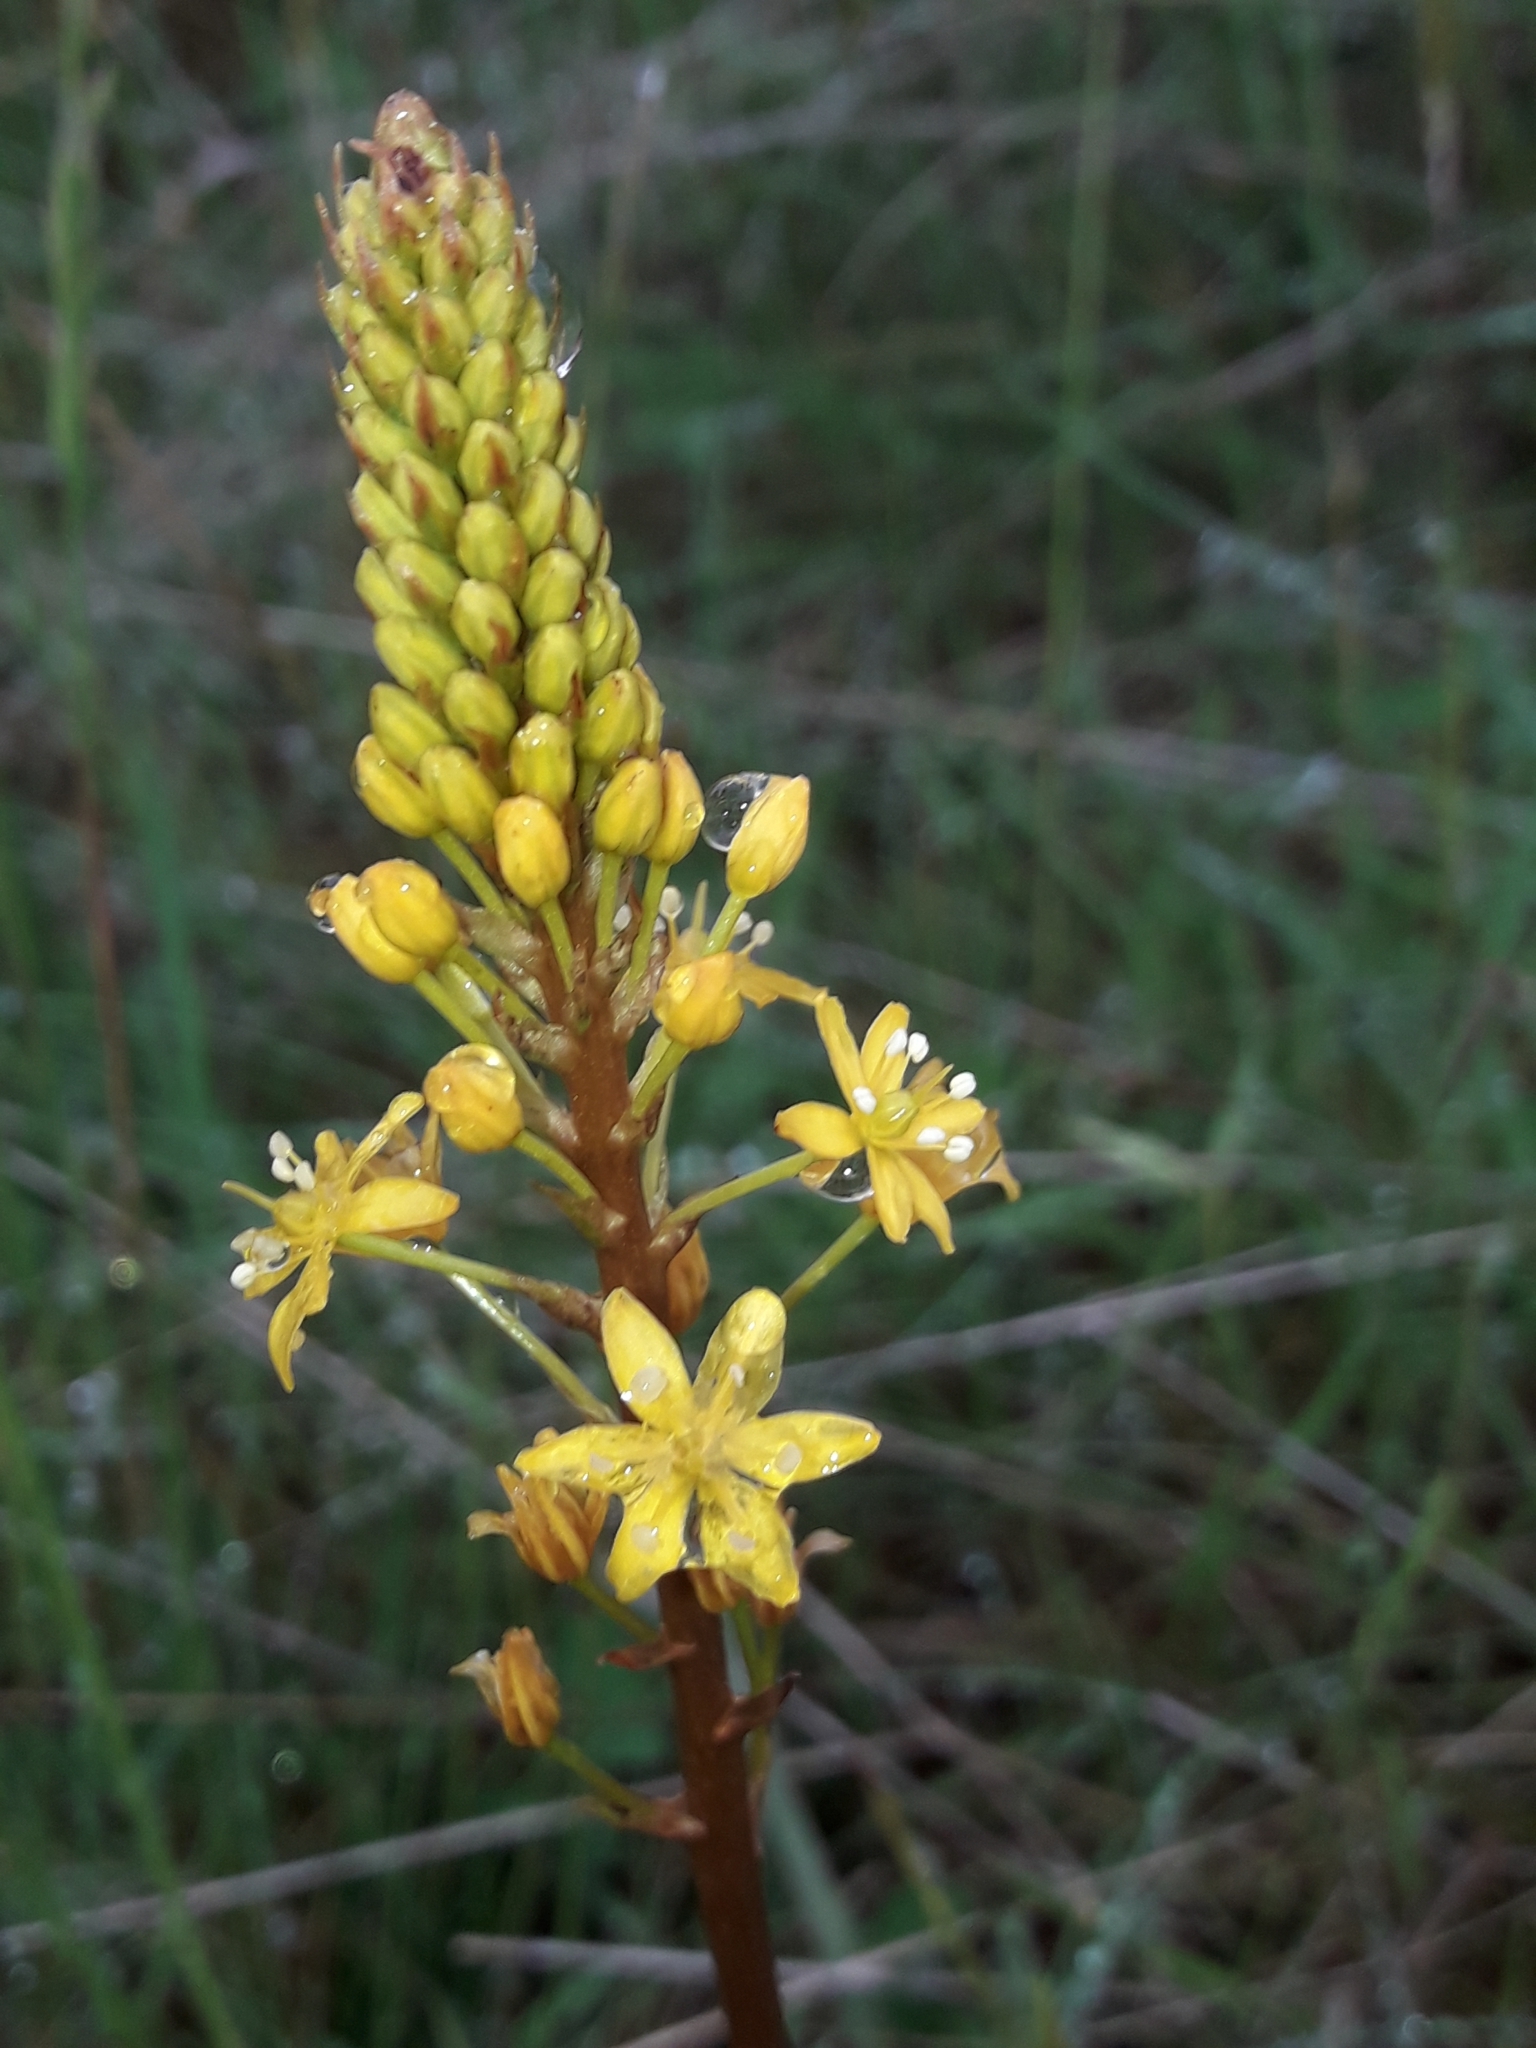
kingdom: Plantae
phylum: Tracheophyta
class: Liliopsida
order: Asparagales
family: Asphodelaceae
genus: Bulbinella
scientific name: Bulbinella angustifolia
